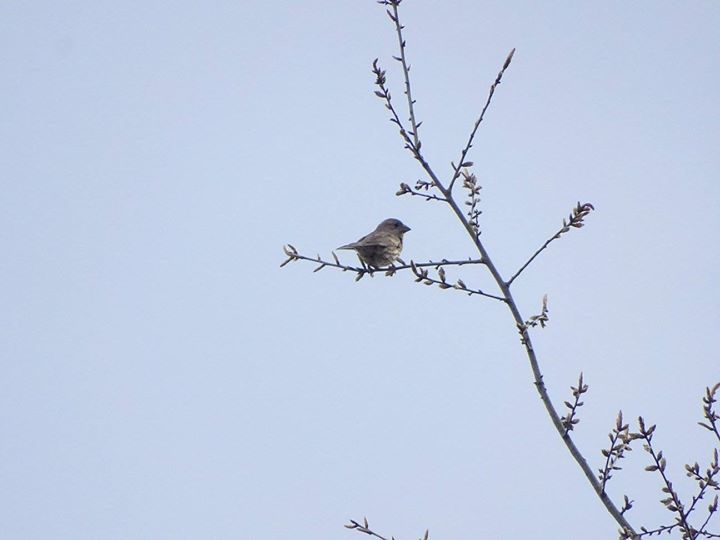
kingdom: Animalia
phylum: Chordata
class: Aves
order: Passeriformes
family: Fringillidae
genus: Haemorhous
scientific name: Haemorhous mexicanus
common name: House finch
